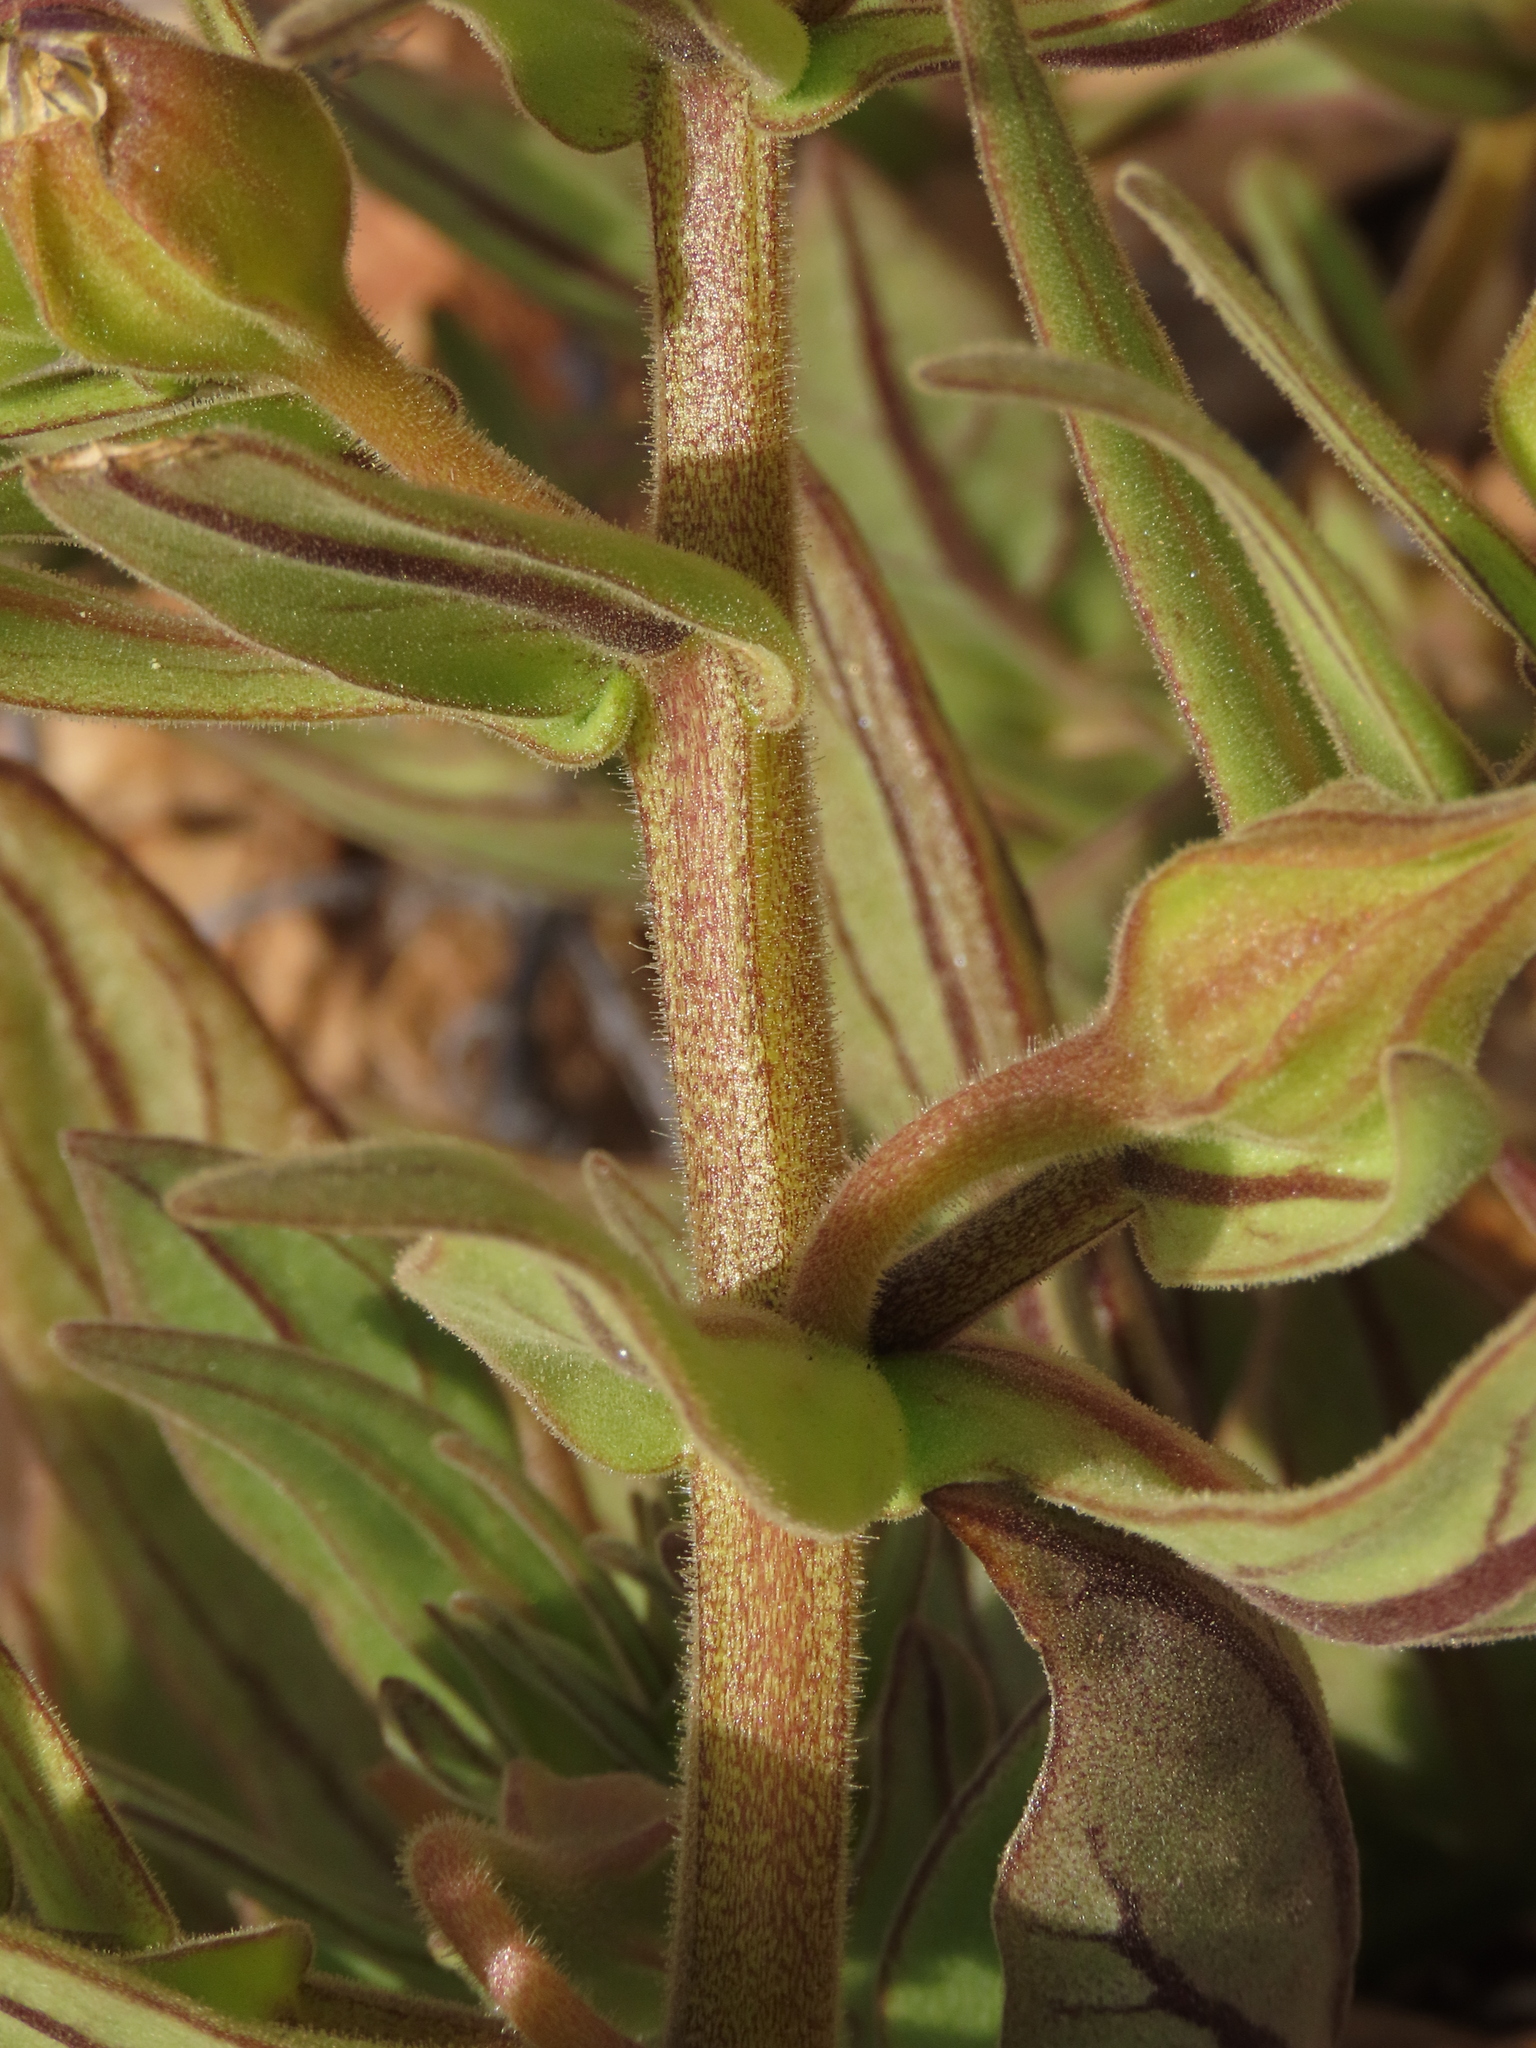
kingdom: Plantae
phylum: Tracheophyta
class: Magnoliopsida
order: Solanales
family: Solanaceae
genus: Nolana
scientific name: Nolana rupicola
